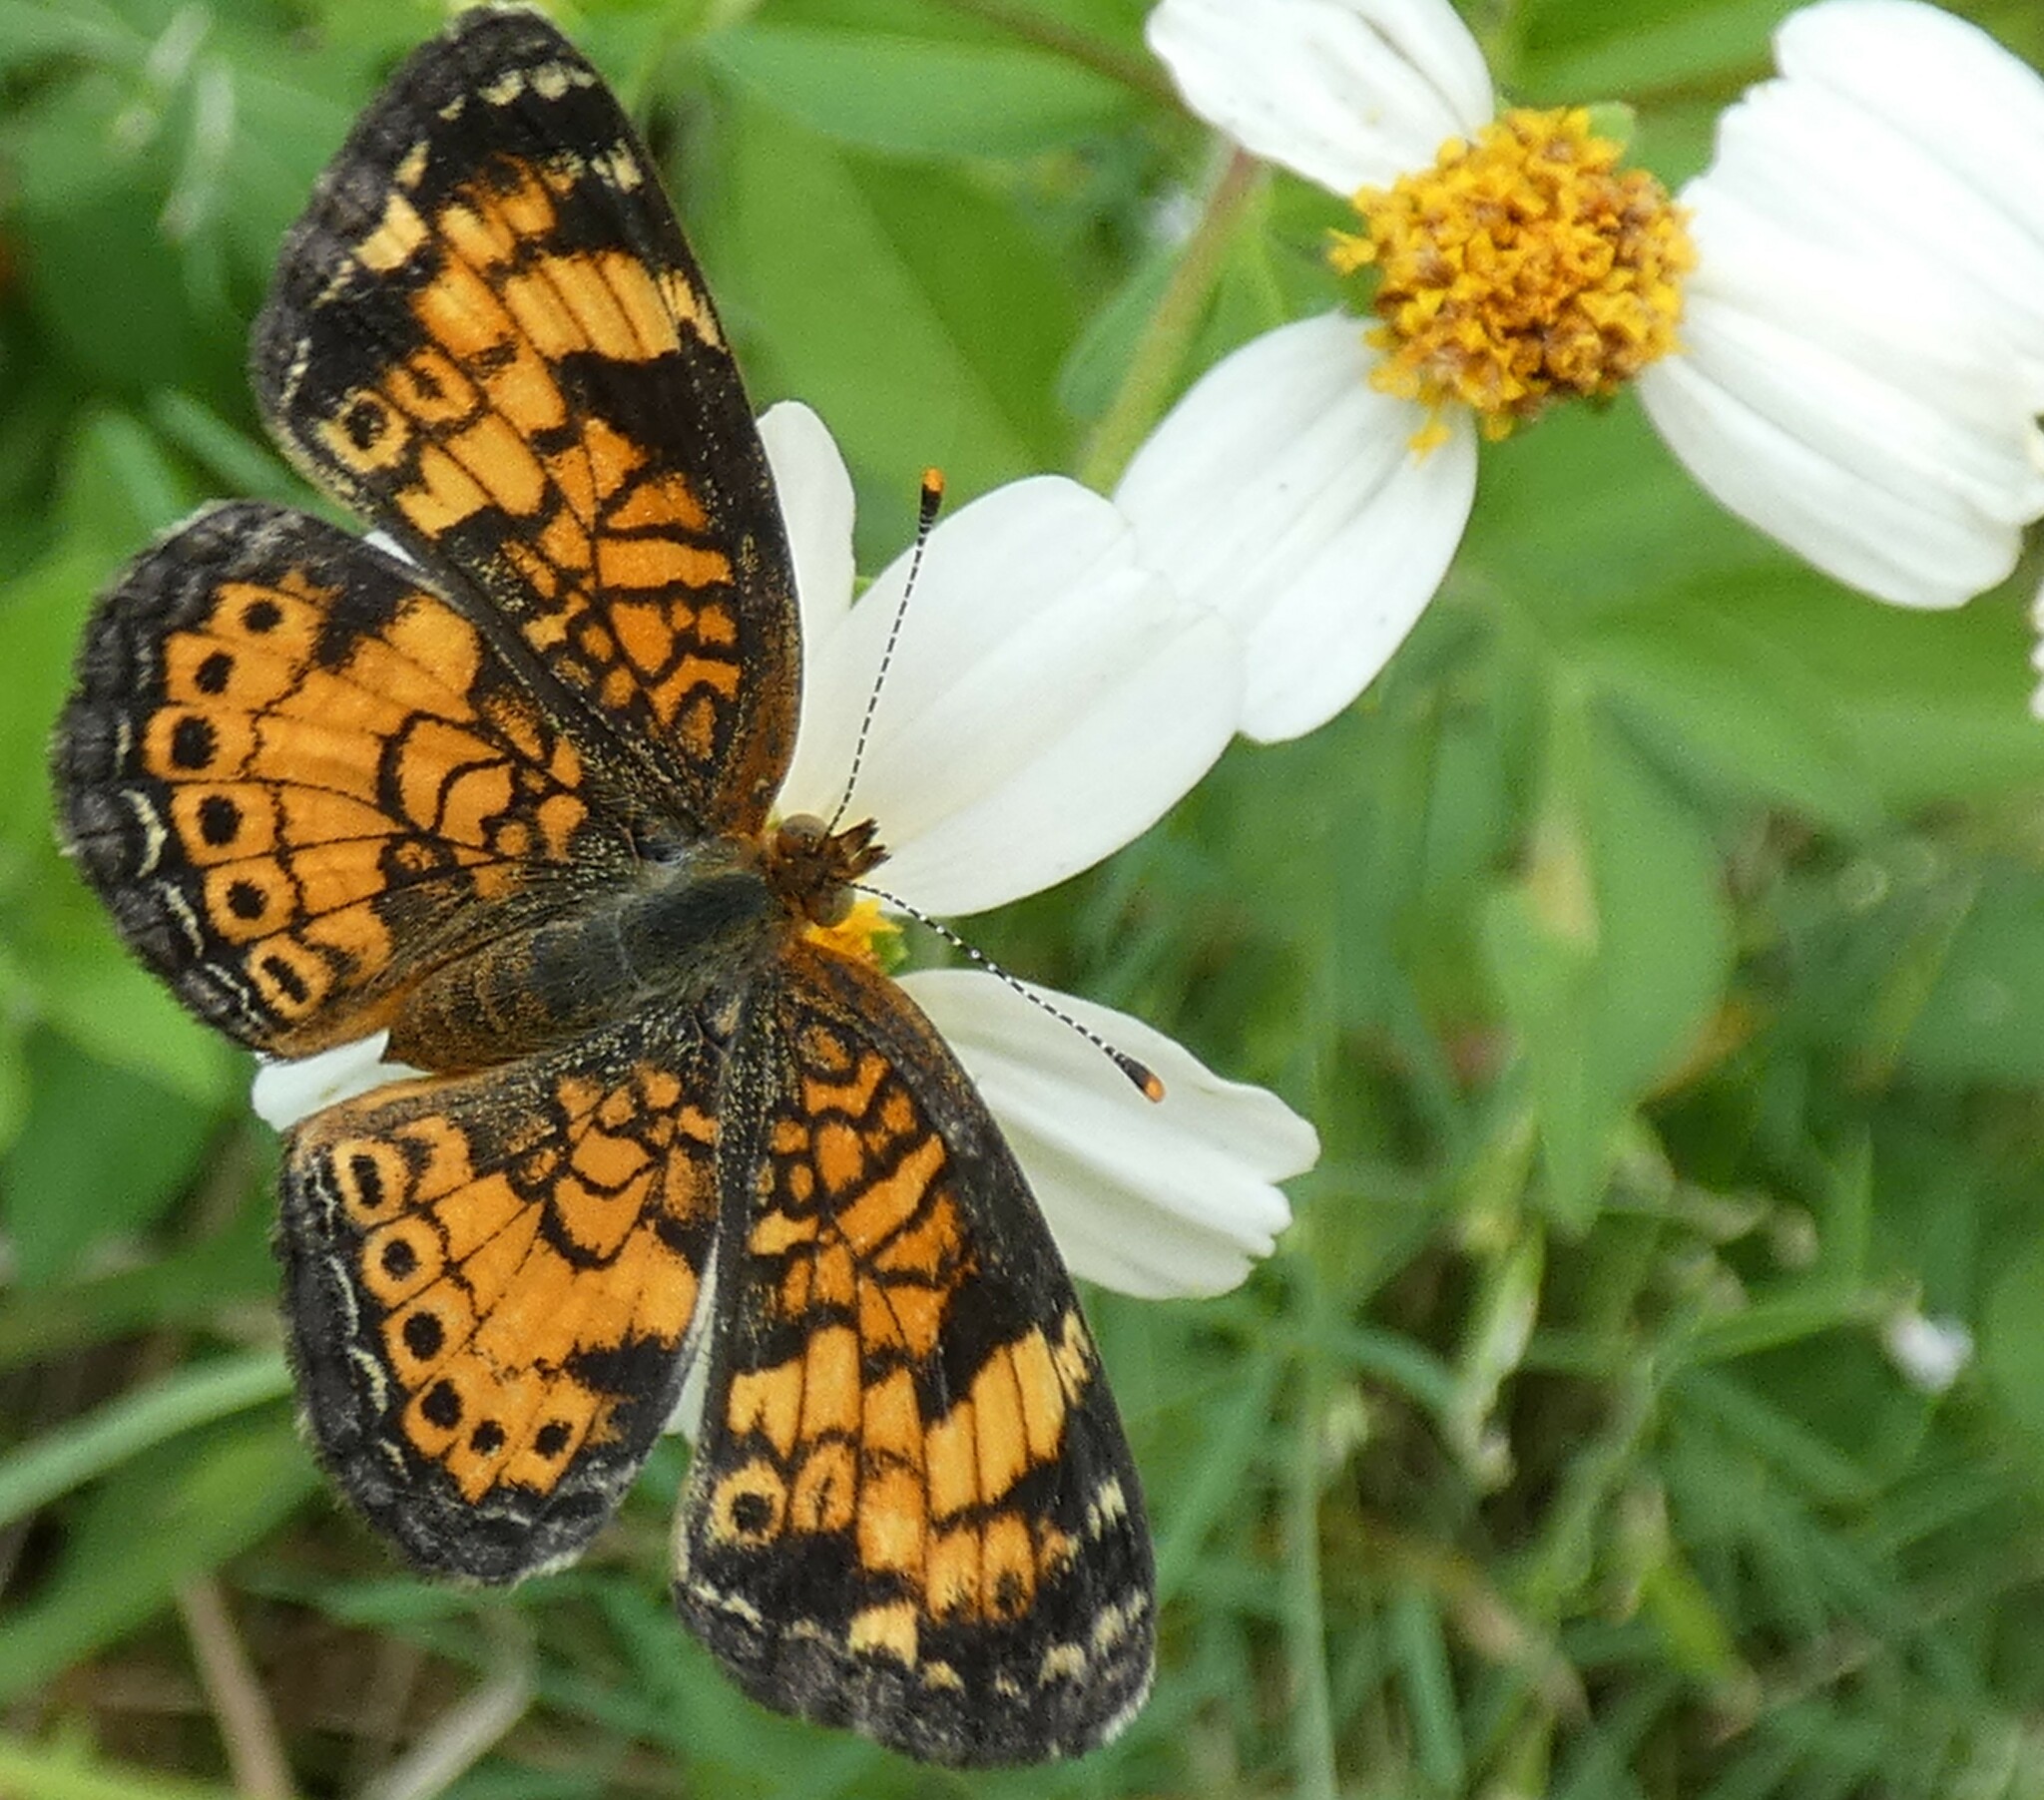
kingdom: Animalia
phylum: Arthropoda
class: Insecta
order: Lepidoptera
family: Nymphalidae
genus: Phyciodes
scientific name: Phyciodes tharos
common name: Pearl crescent
